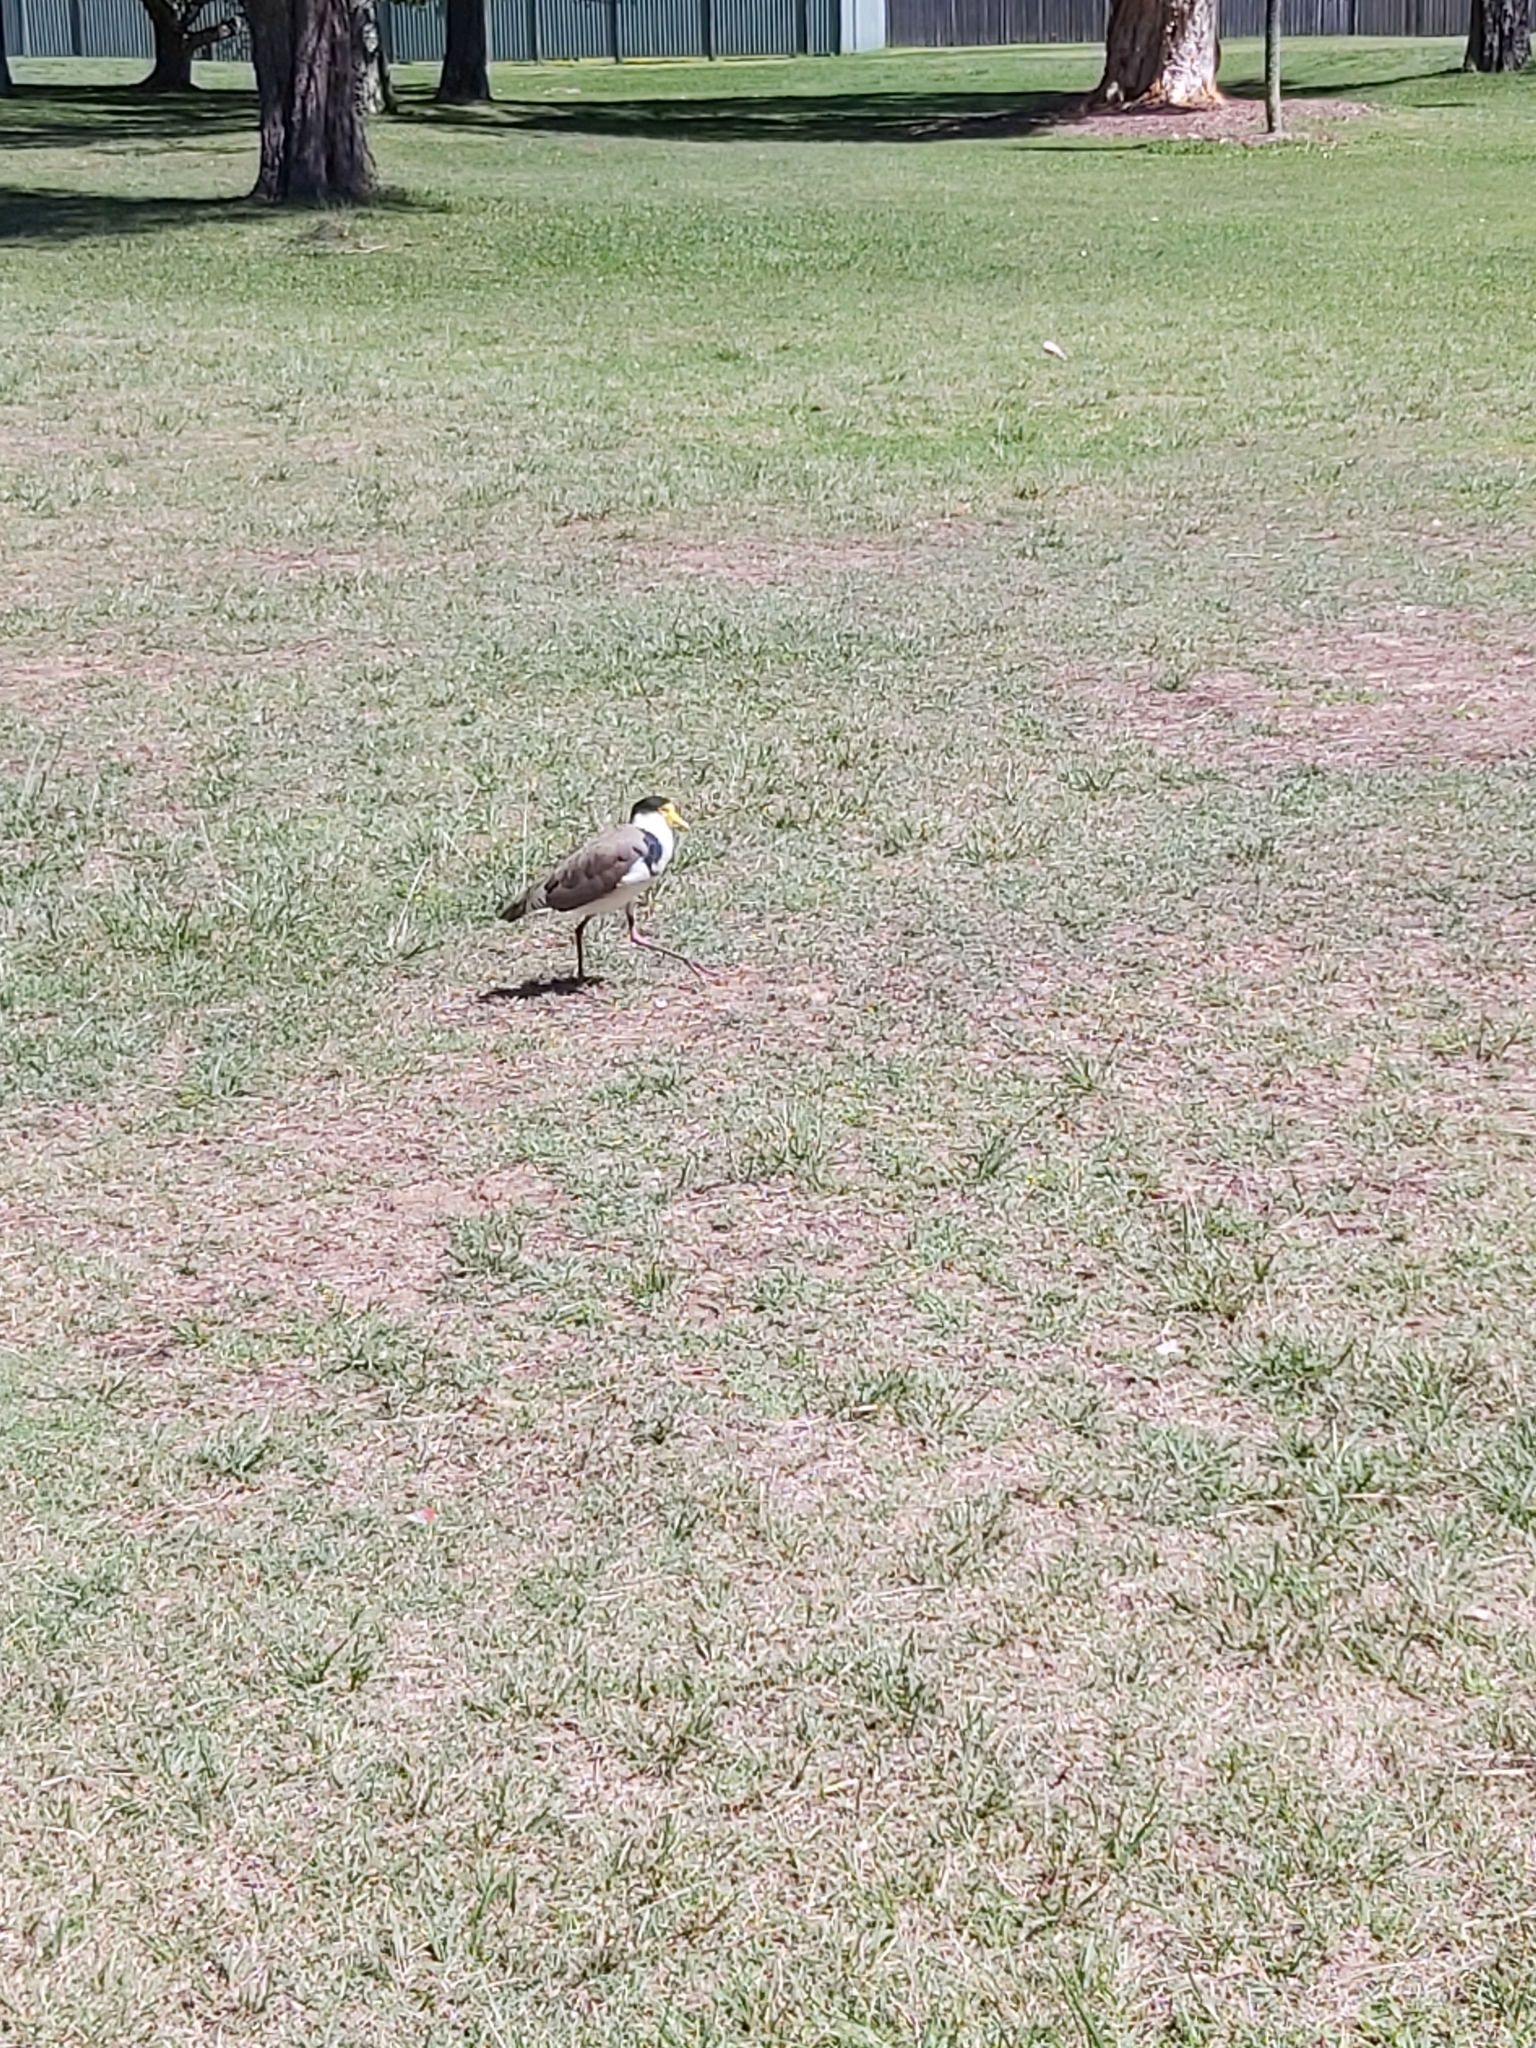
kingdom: Animalia
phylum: Chordata
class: Aves
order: Charadriiformes
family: Charadriidae
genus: Vanellus
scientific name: Vanellus miles
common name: Masked lapwing
